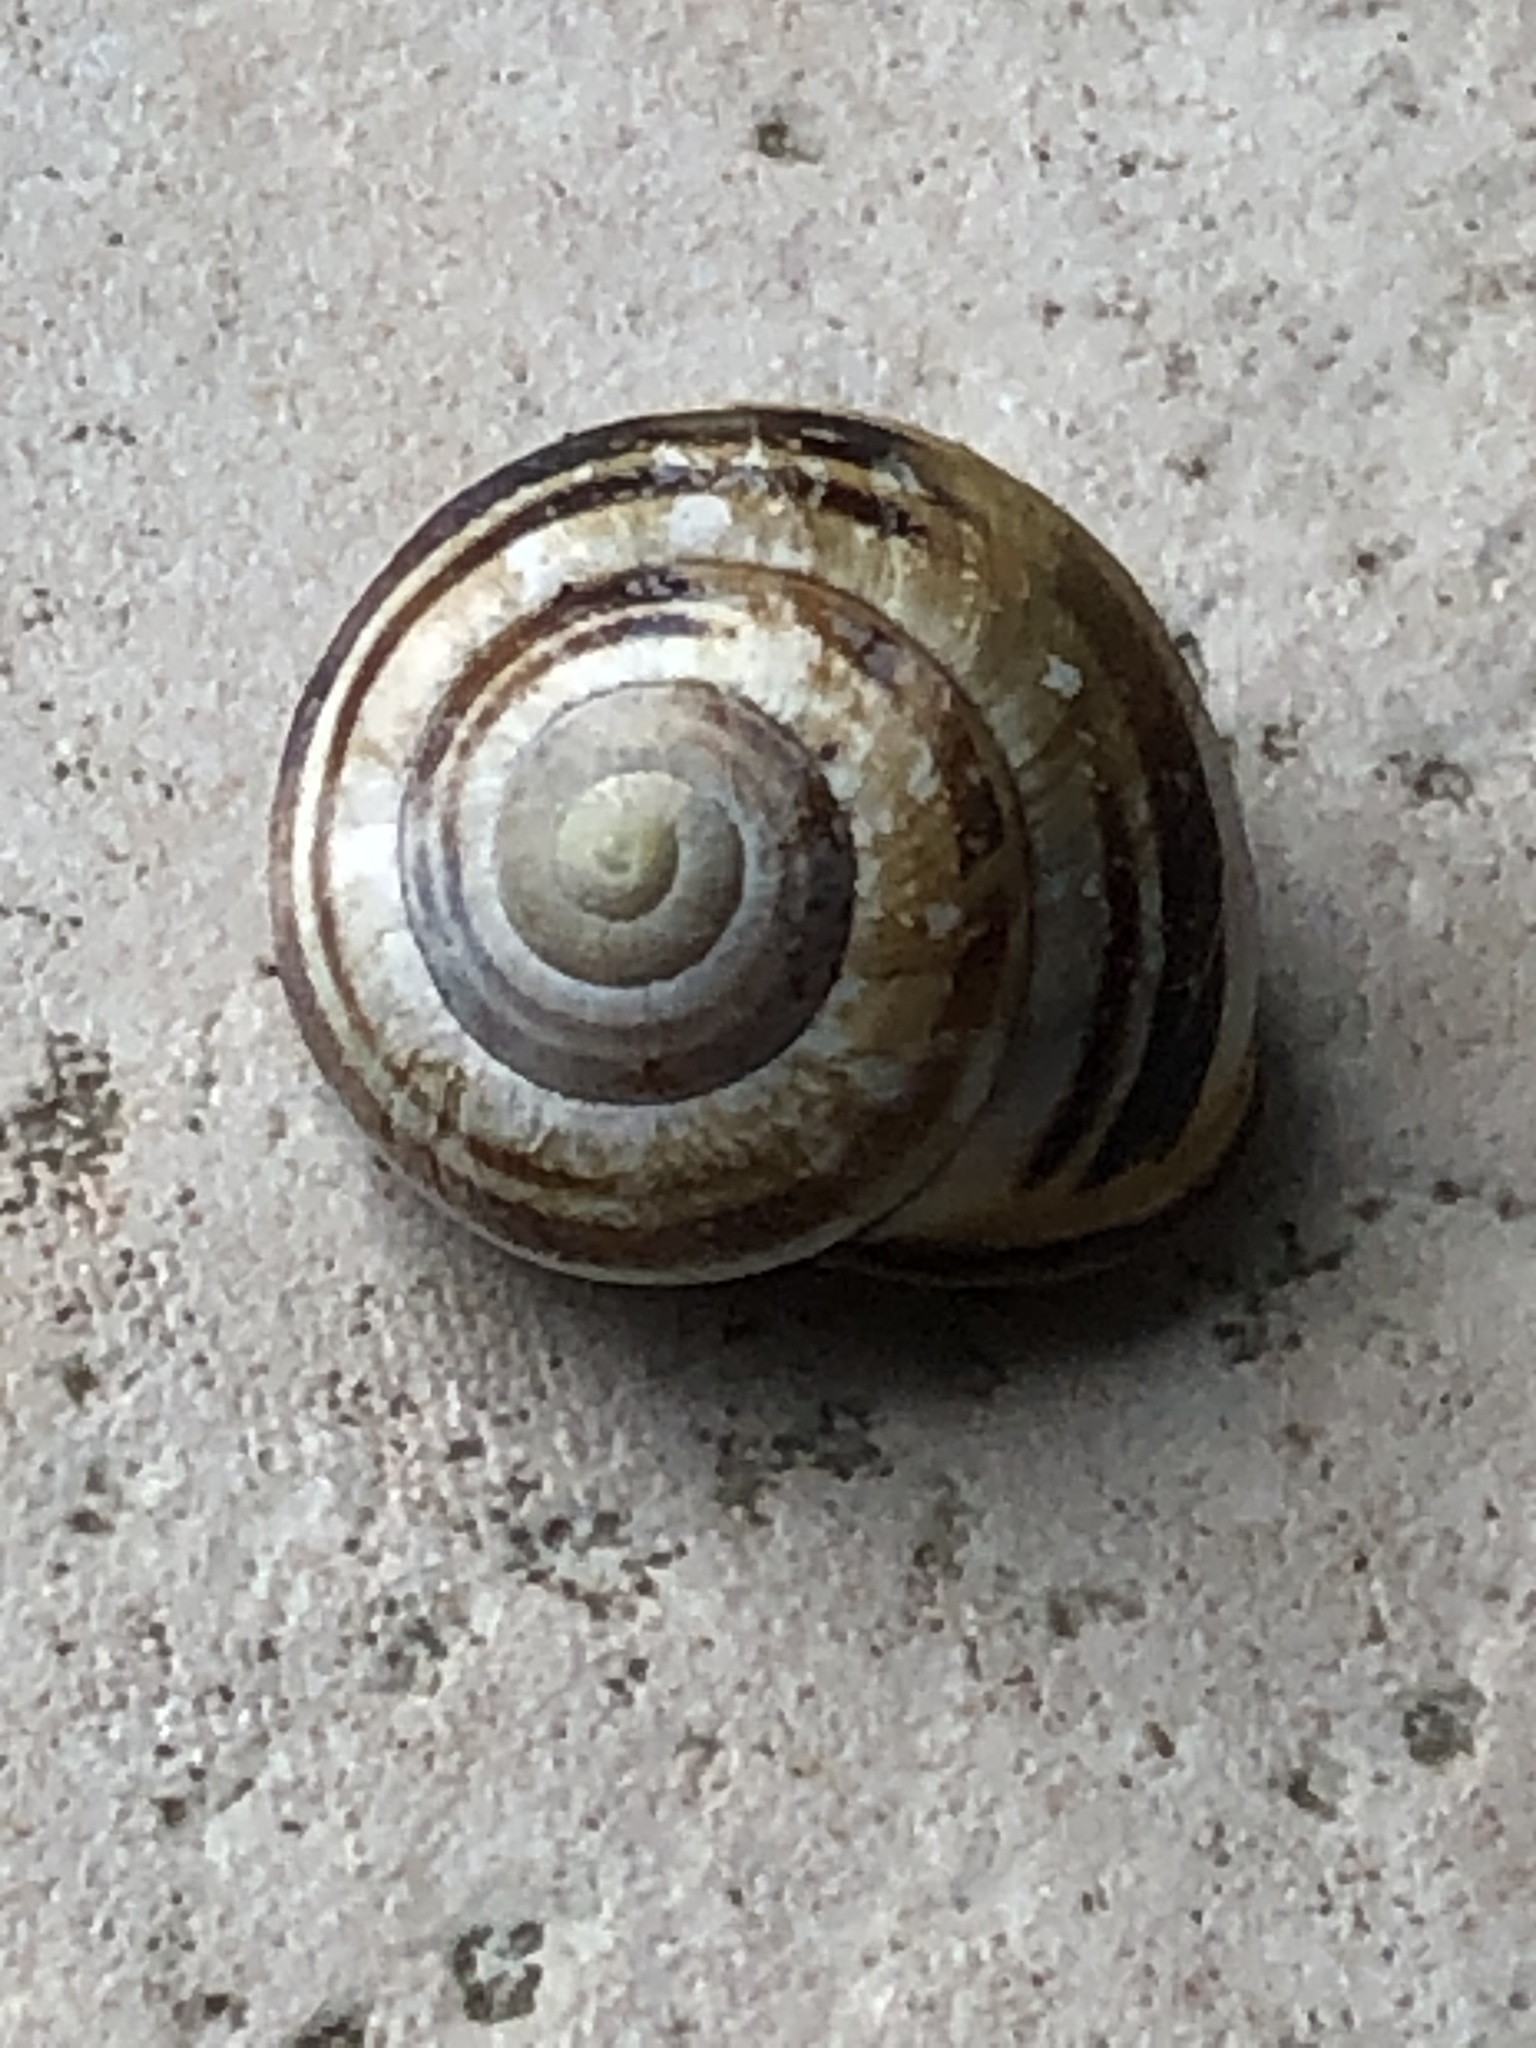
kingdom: Animalia
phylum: Mollusca
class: Gastropoda
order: Stylommatophora
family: Helicidae
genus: Cepaea
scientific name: Cepaea nemoralis
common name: Grovesnail
